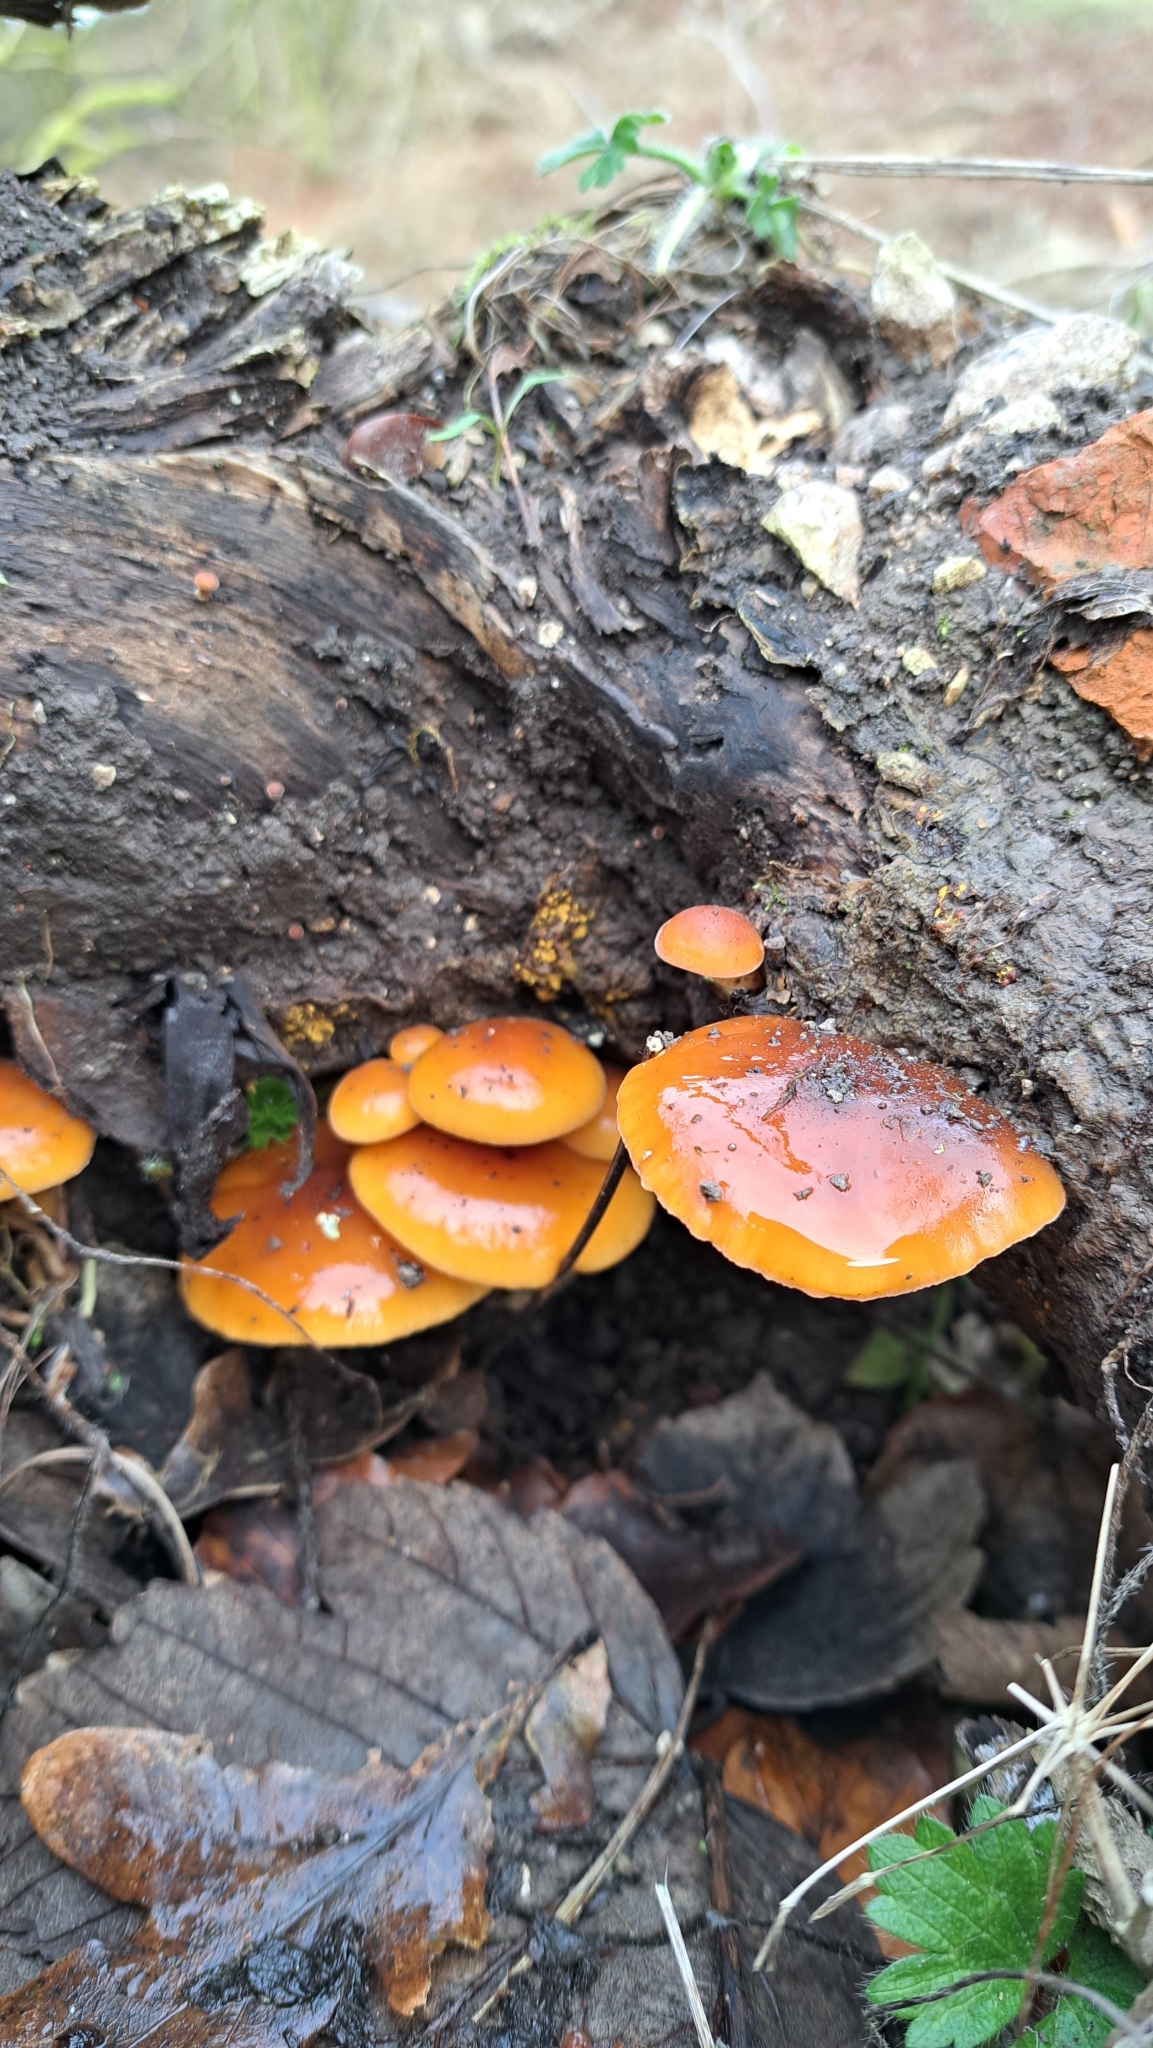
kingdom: Fungi
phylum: Basidiomycota
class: Agaricomycetes
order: Agaricales
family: Physalacriaceae
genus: Flammulina
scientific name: Flammulina
